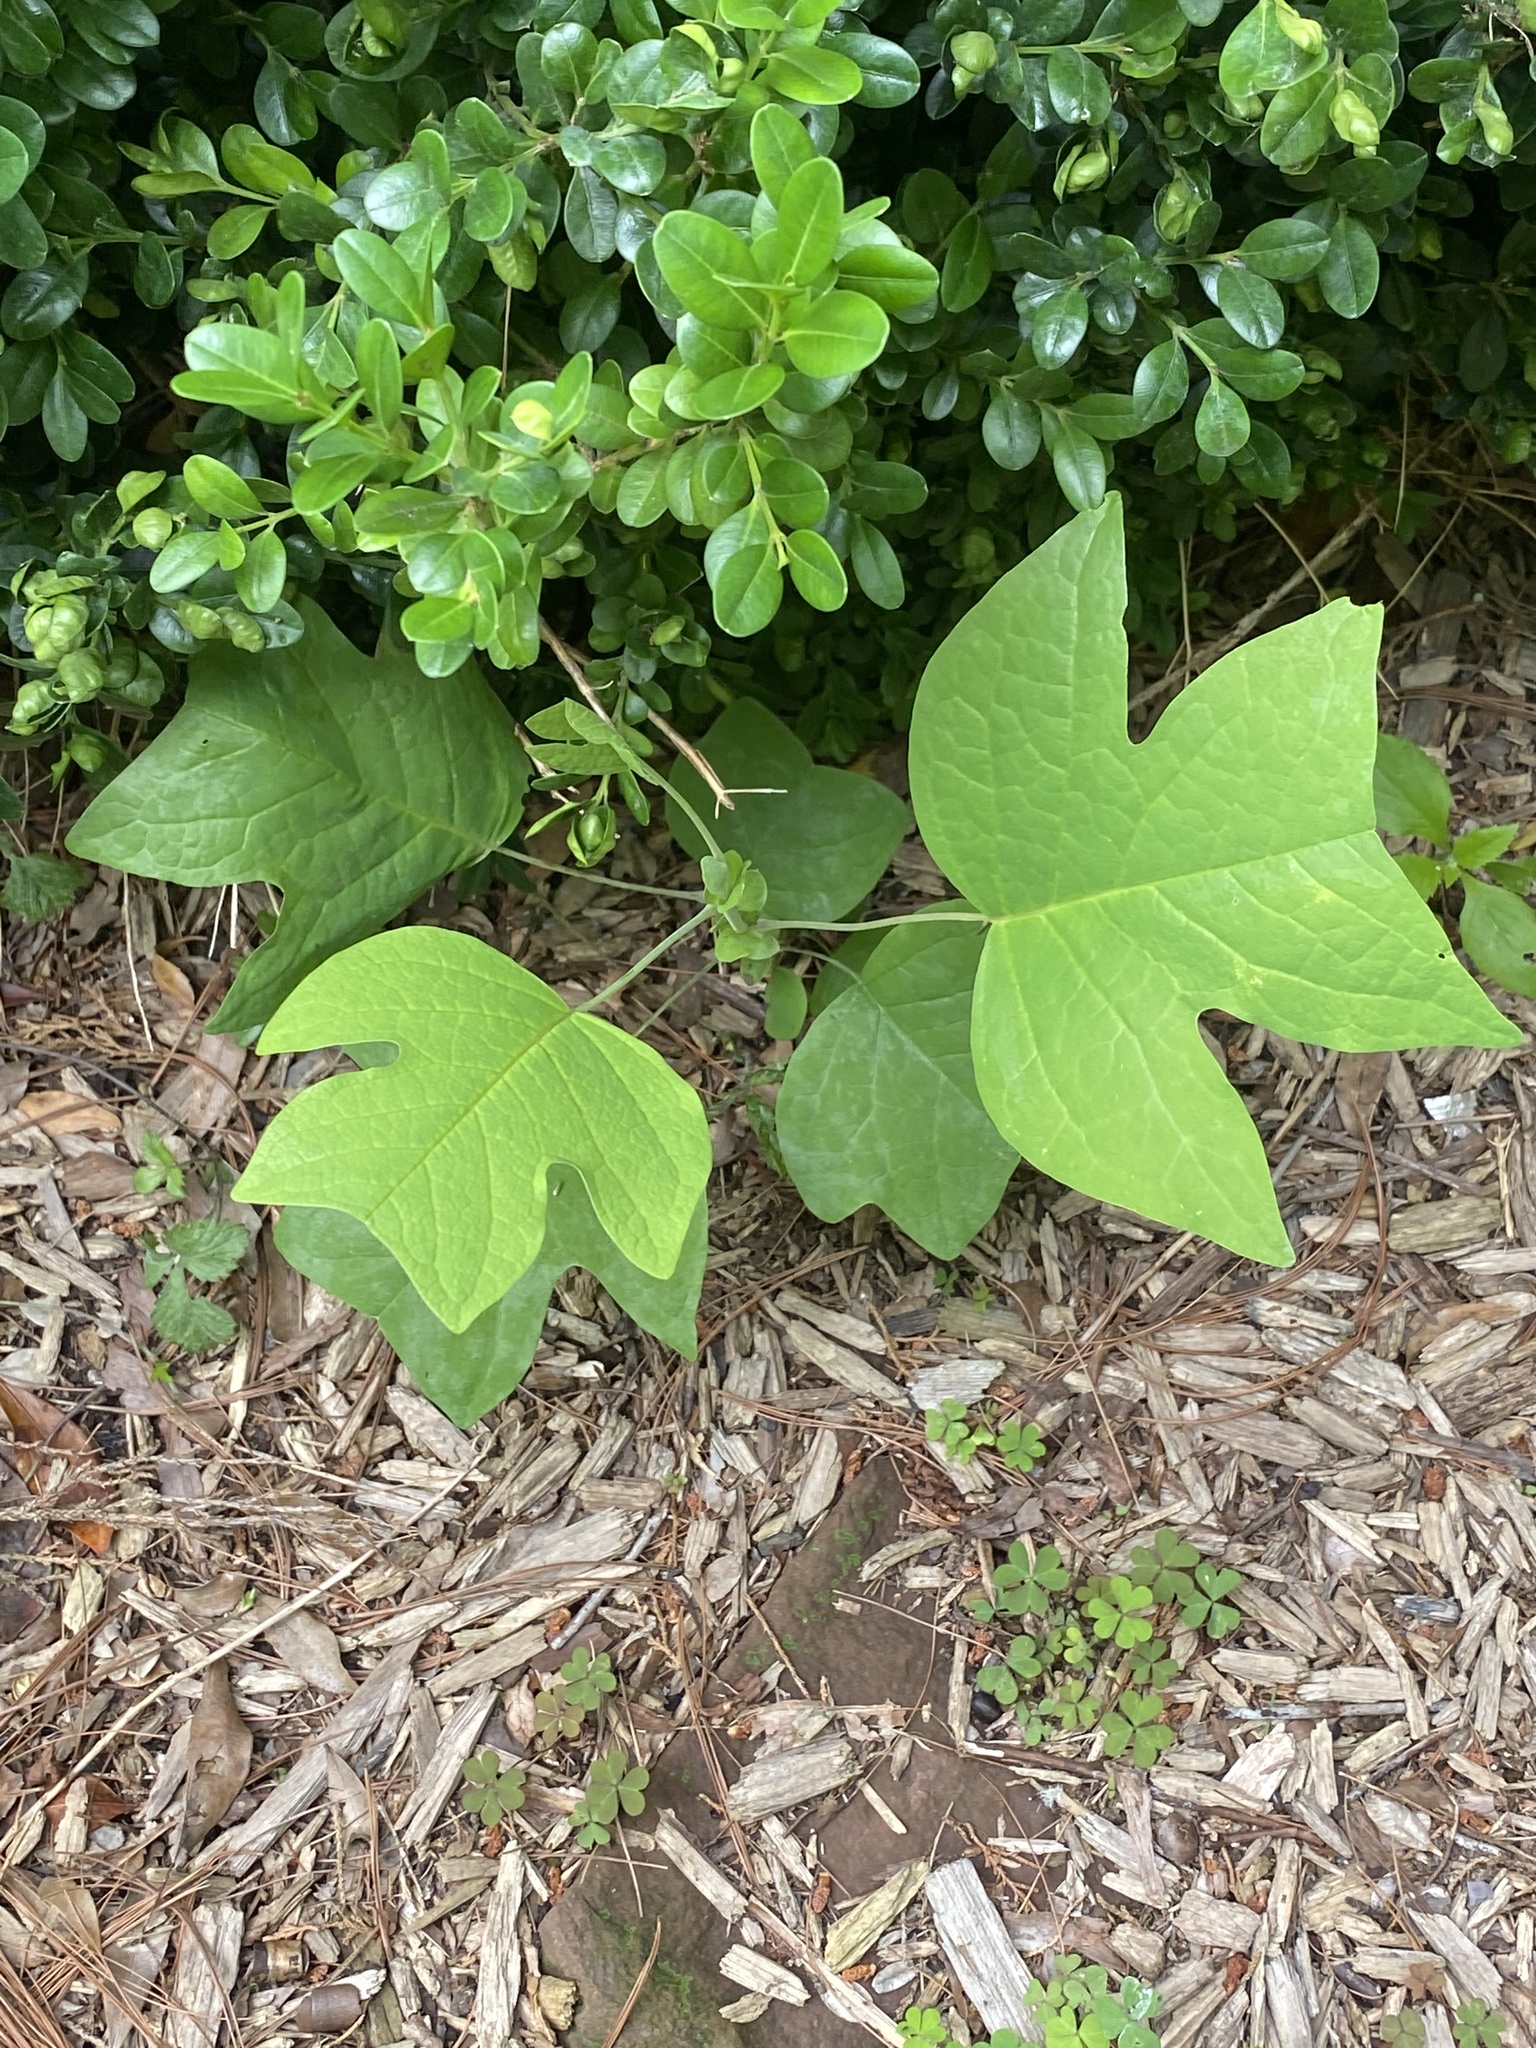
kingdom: Plantae
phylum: Tracheophyta
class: Magnoliopsida
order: Magnoliales
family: Magnoliaceae
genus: Liriodendron
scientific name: Liriodendron tulipifera
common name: Tulip tree
